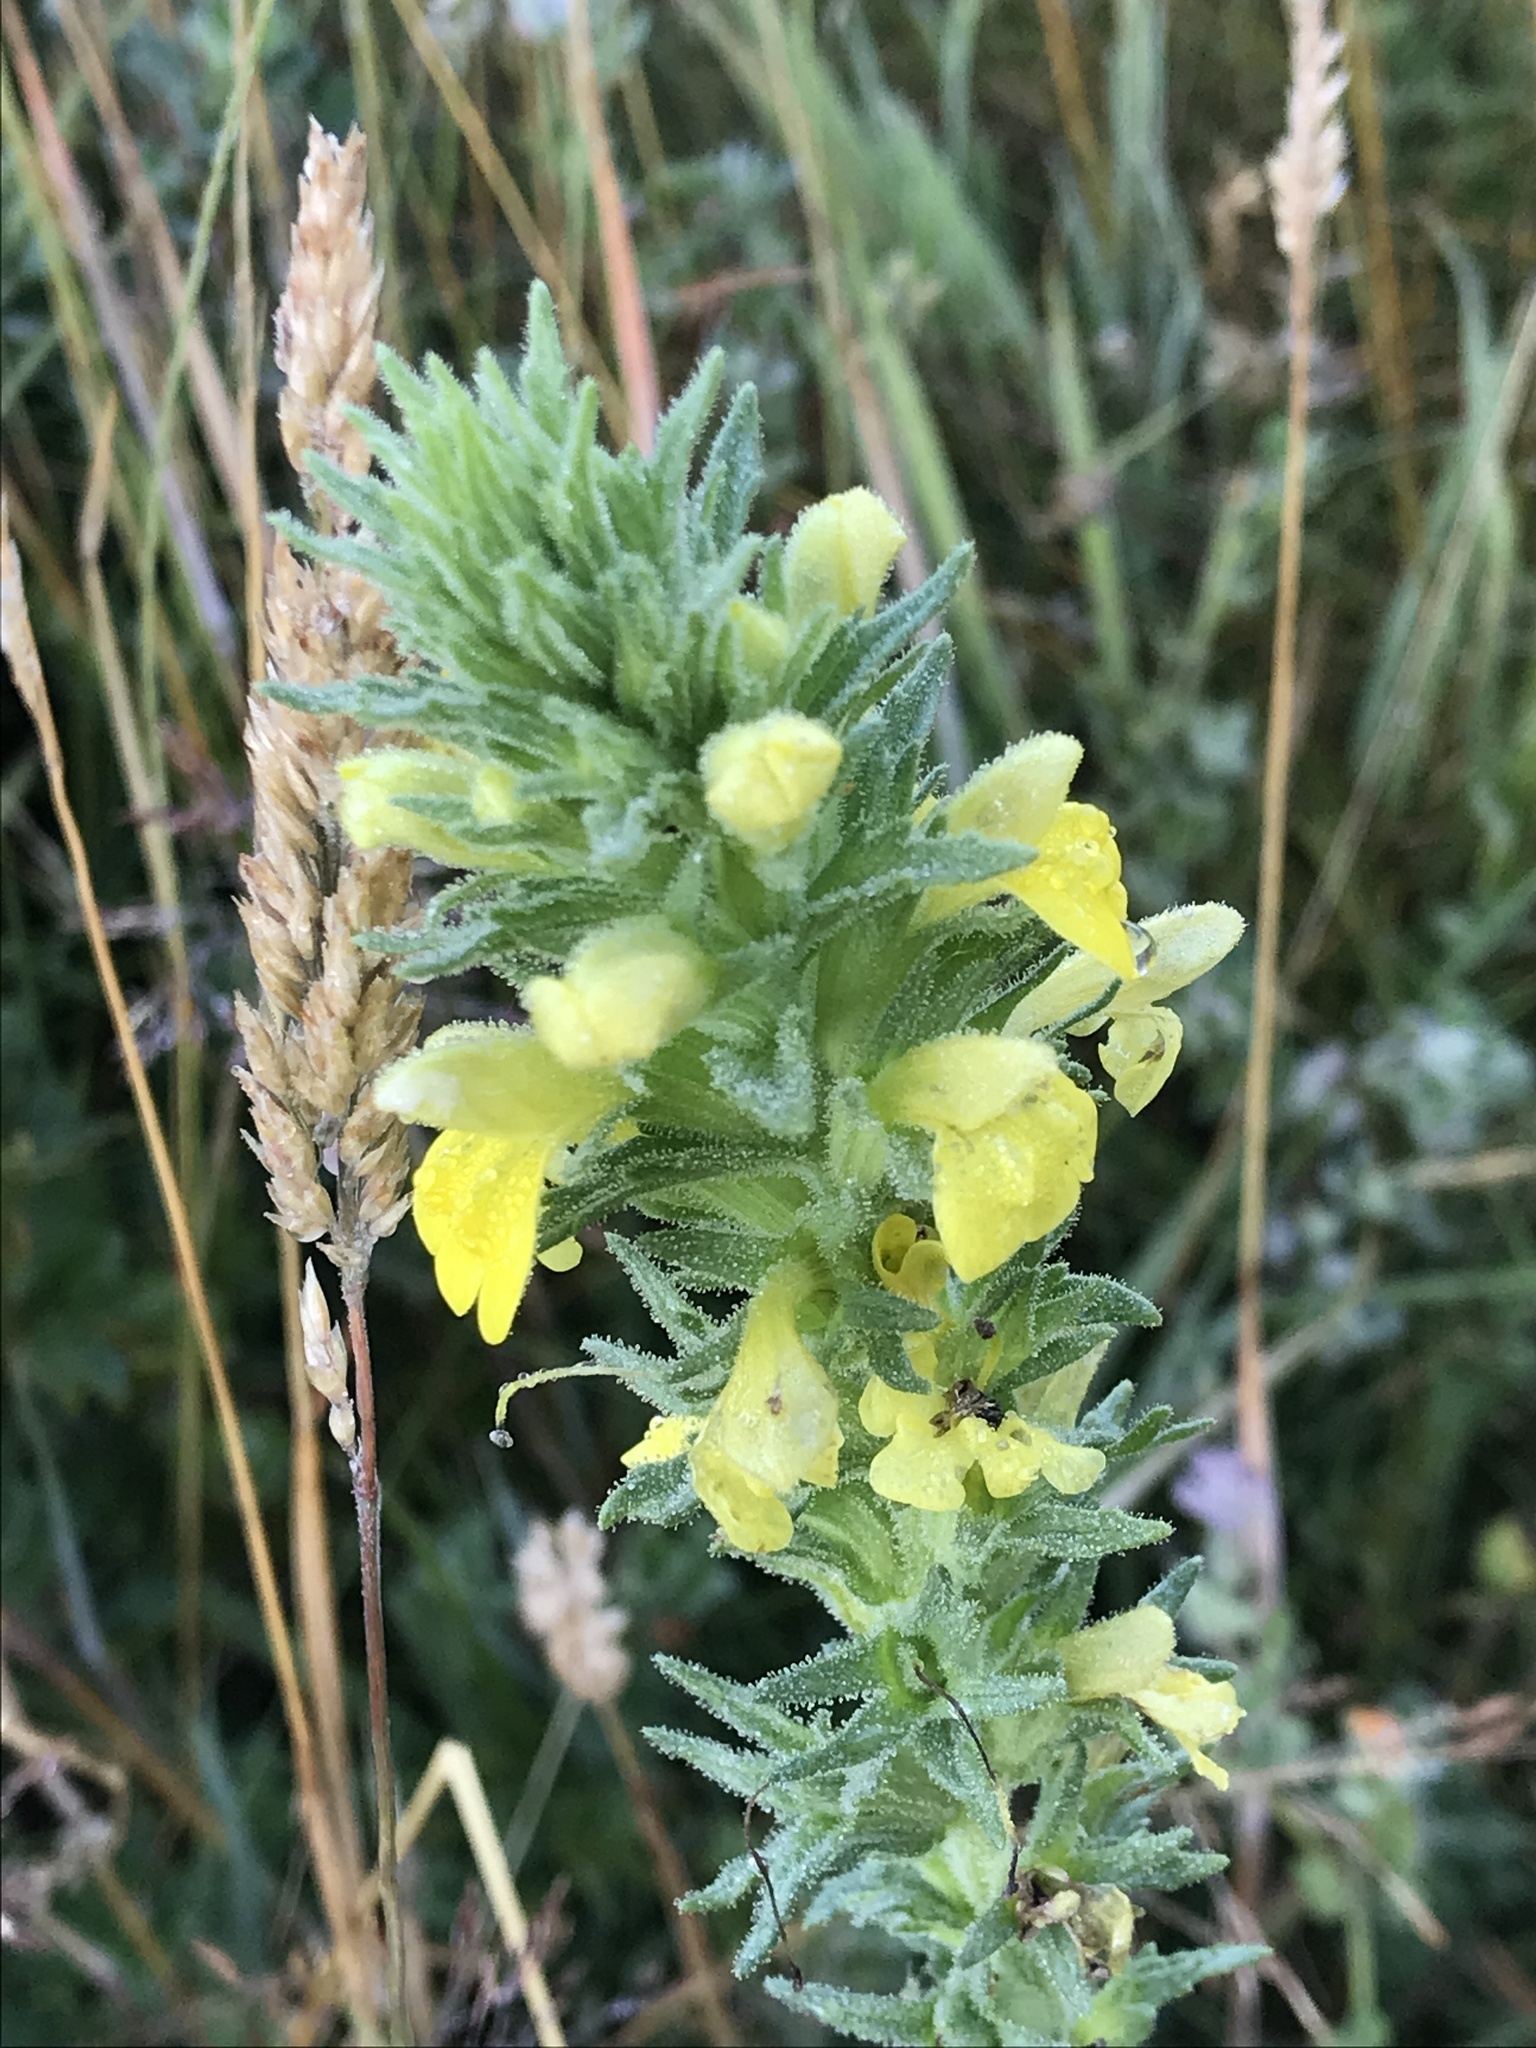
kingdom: Plantae
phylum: Tracheophyta
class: Magnoliopsida
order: Lamiales
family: Orobanchaceae
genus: Bellardia
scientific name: Bellardia viscosa
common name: Sticky parentucellia
